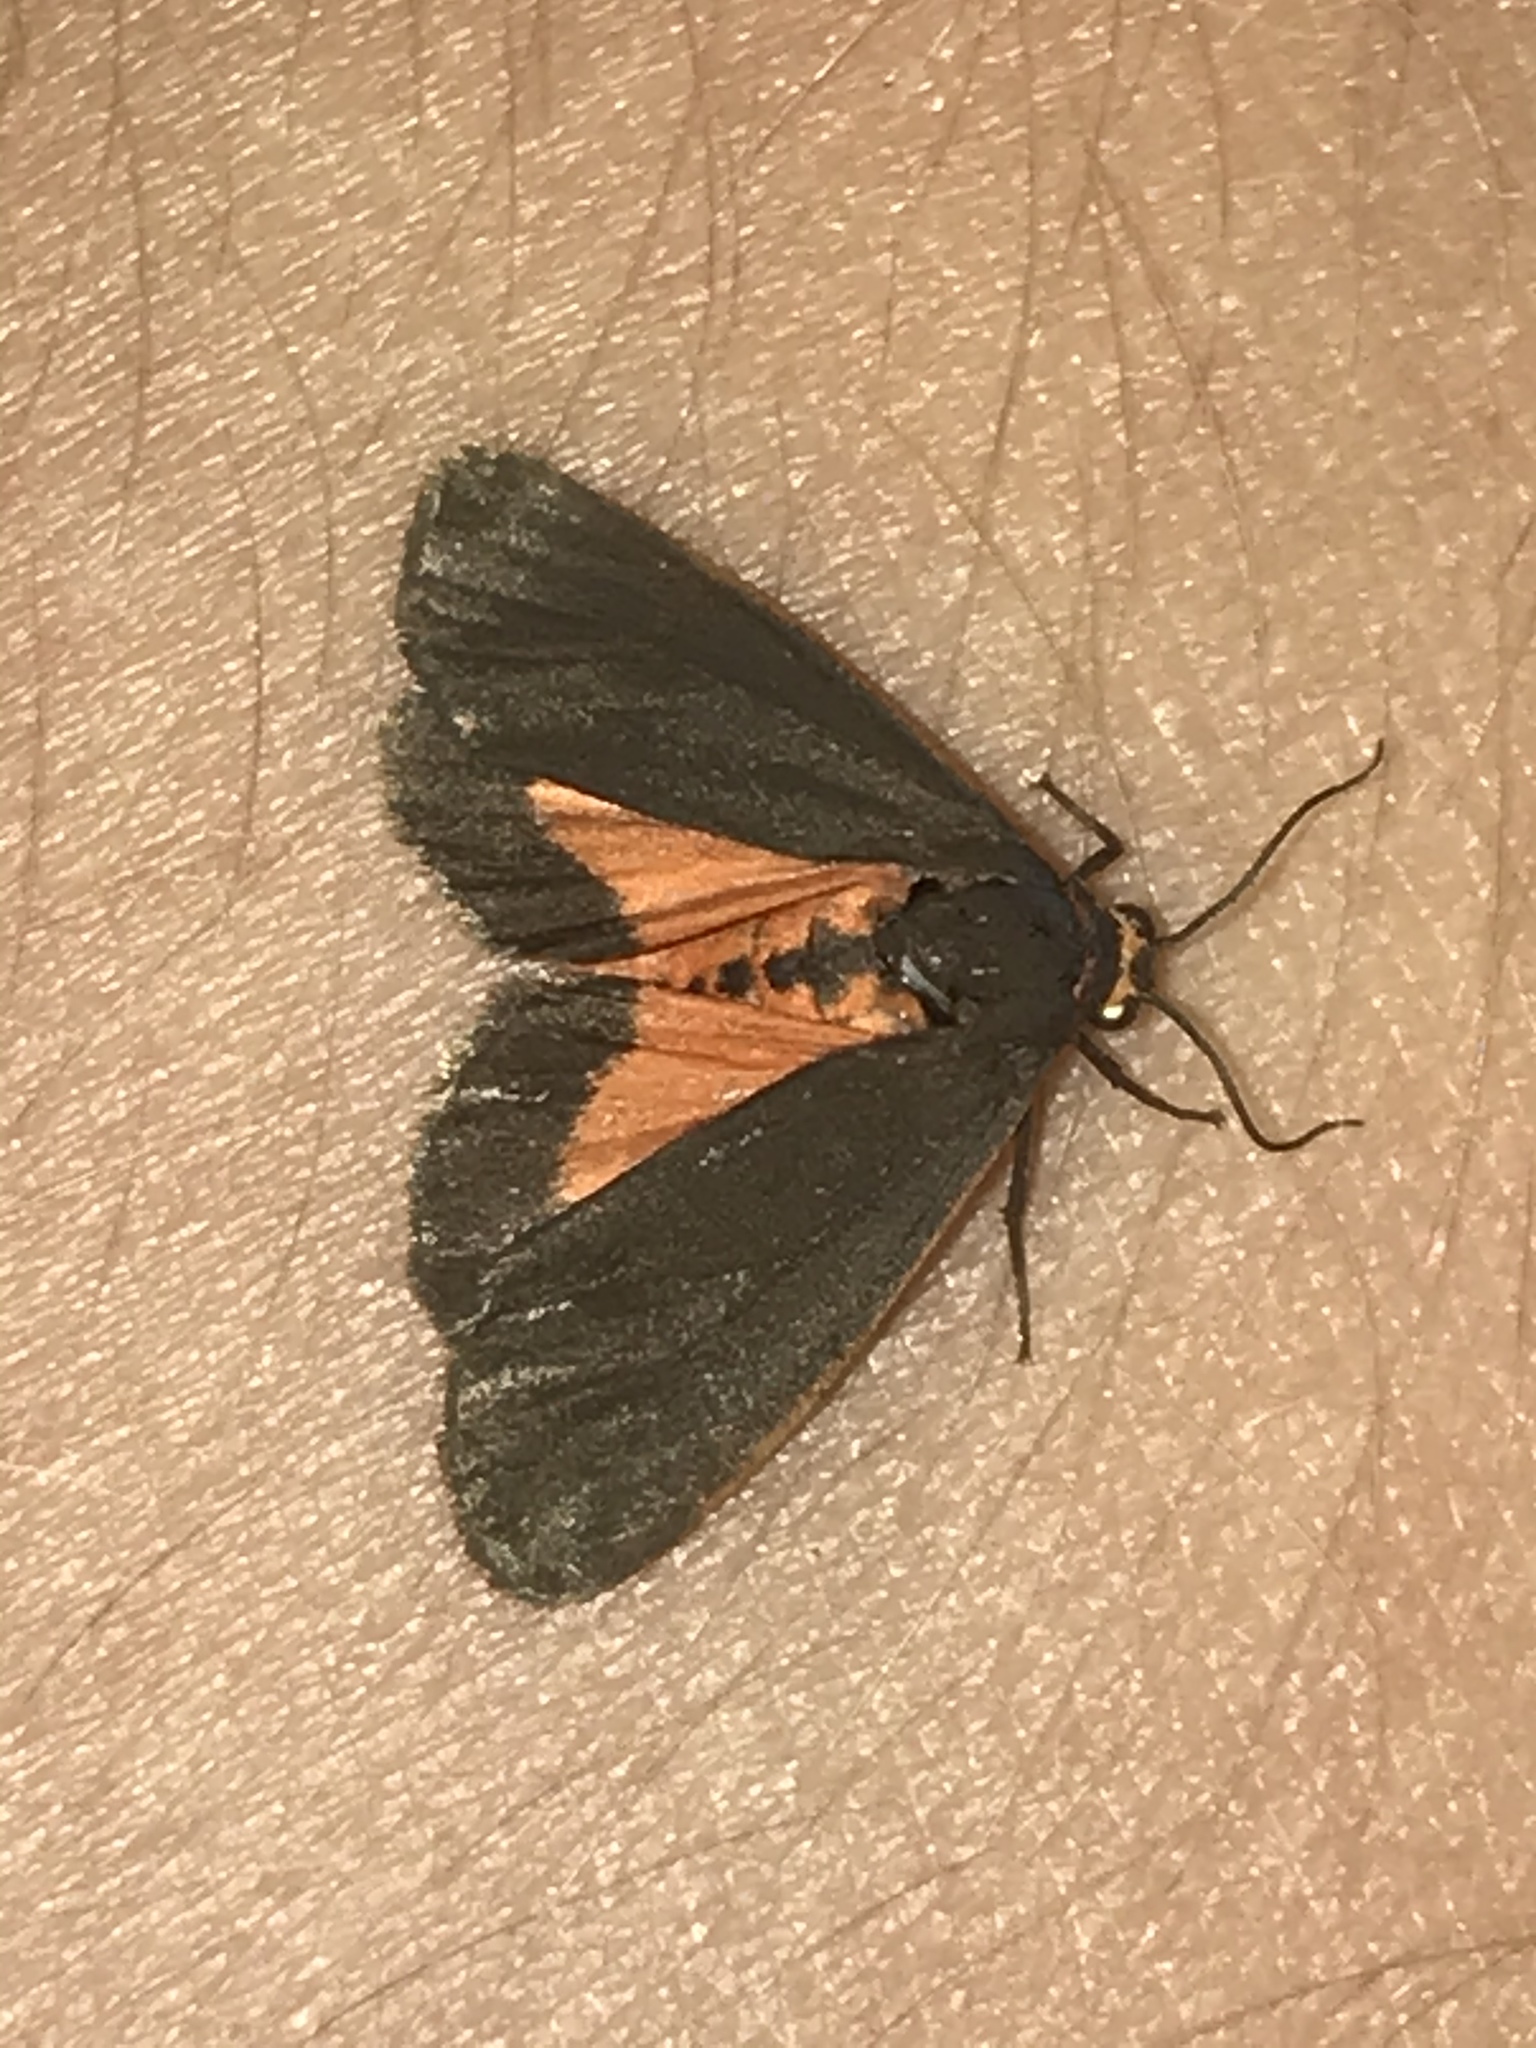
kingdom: Animalia
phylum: Arthropoda
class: Insecta
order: Lepidoptera
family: Erebidae
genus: Virbia
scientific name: Virbia laeta
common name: Joyful holomelina moth
